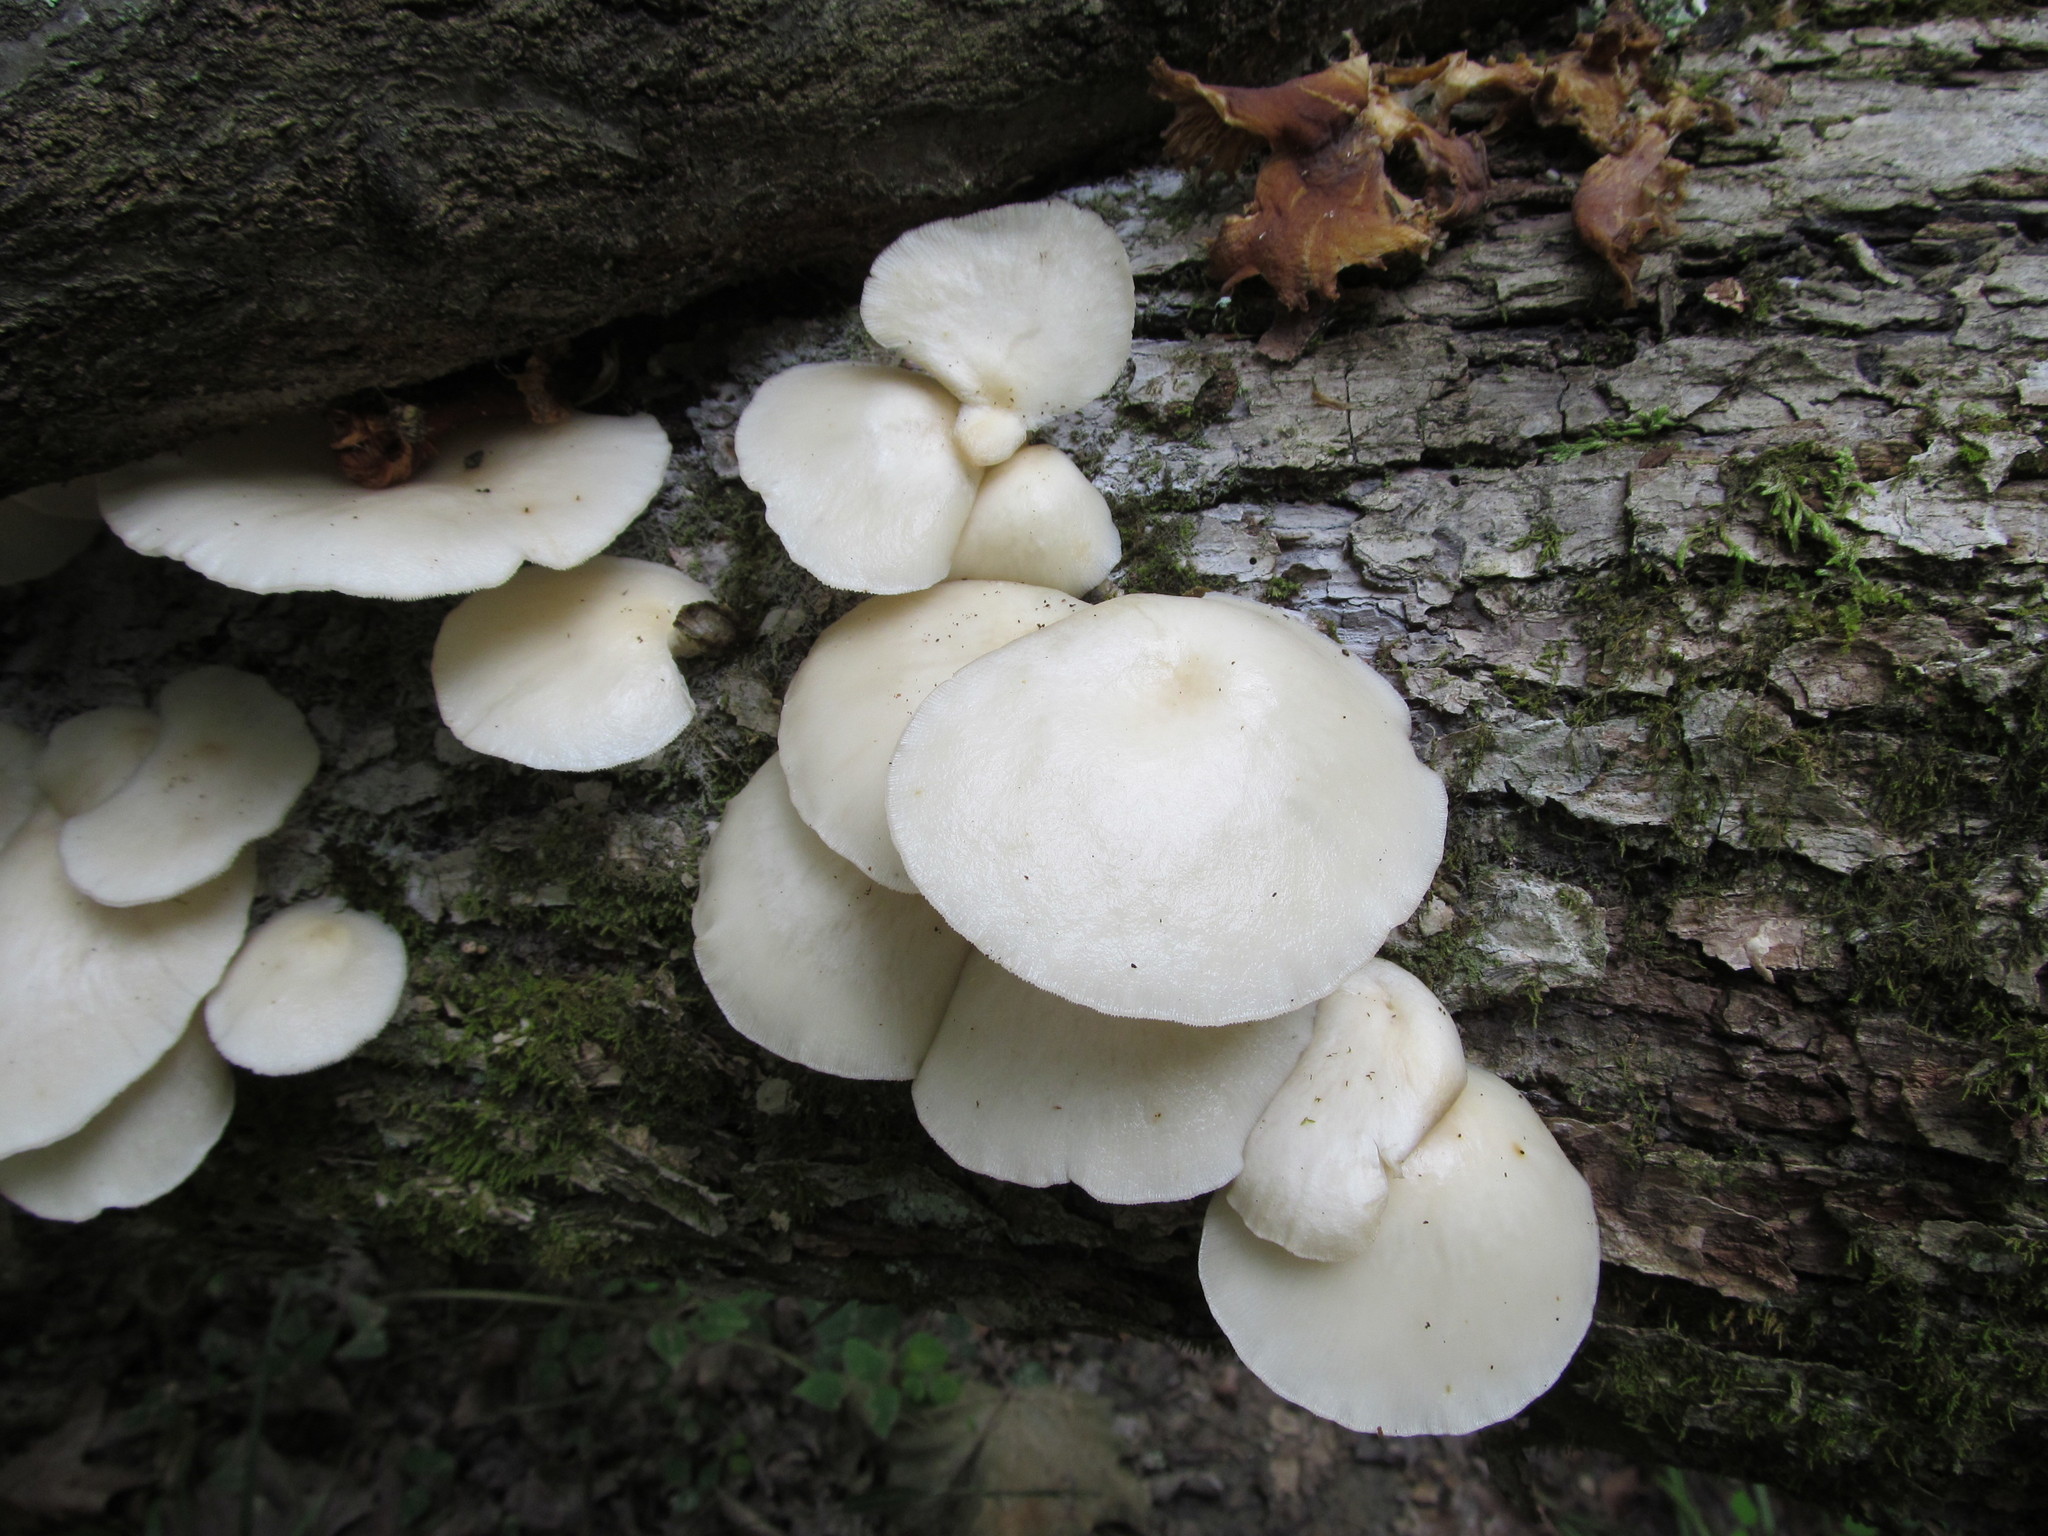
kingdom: Fungi
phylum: Basidiomycota
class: Agaricomycetes
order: Agaricales
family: Pleurotaceae
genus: Pleurotus
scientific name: Pleurotus pulmonarius
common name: Pale oyster
